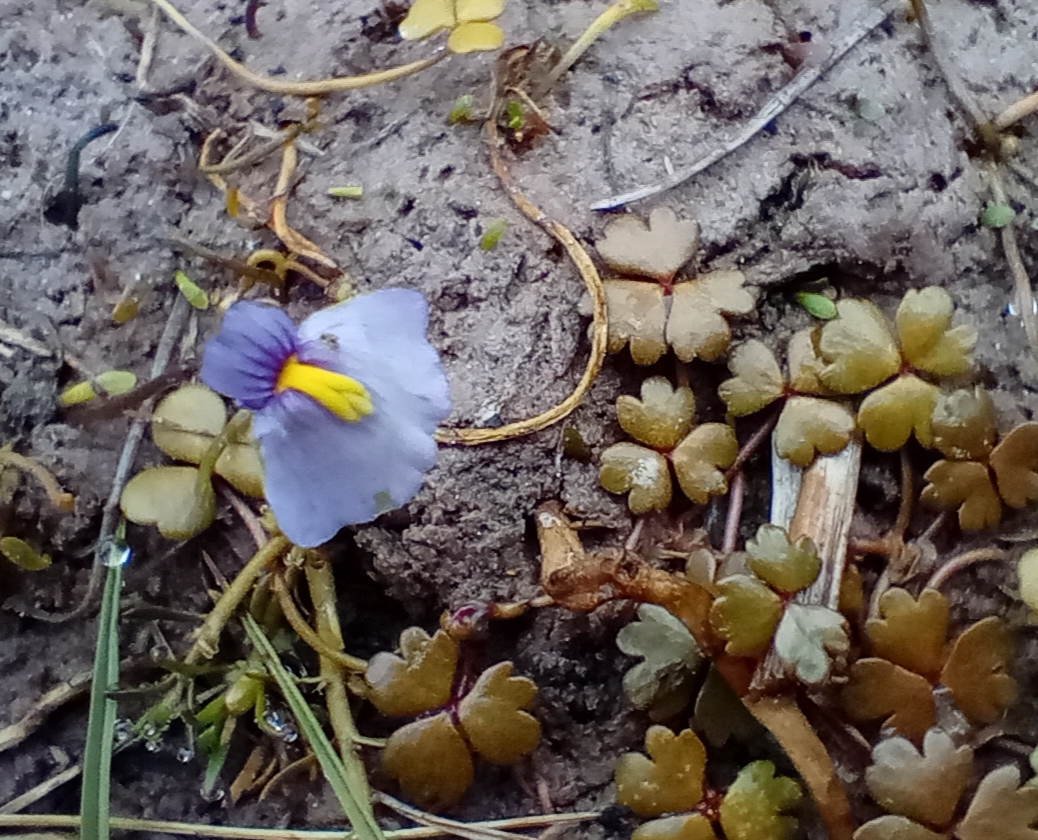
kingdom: Plantae
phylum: Tracheophyta
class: Magnoliopsida
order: Lamiales
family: Lentibulariaceae
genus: Utricularia
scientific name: Utricularia dichotoma
